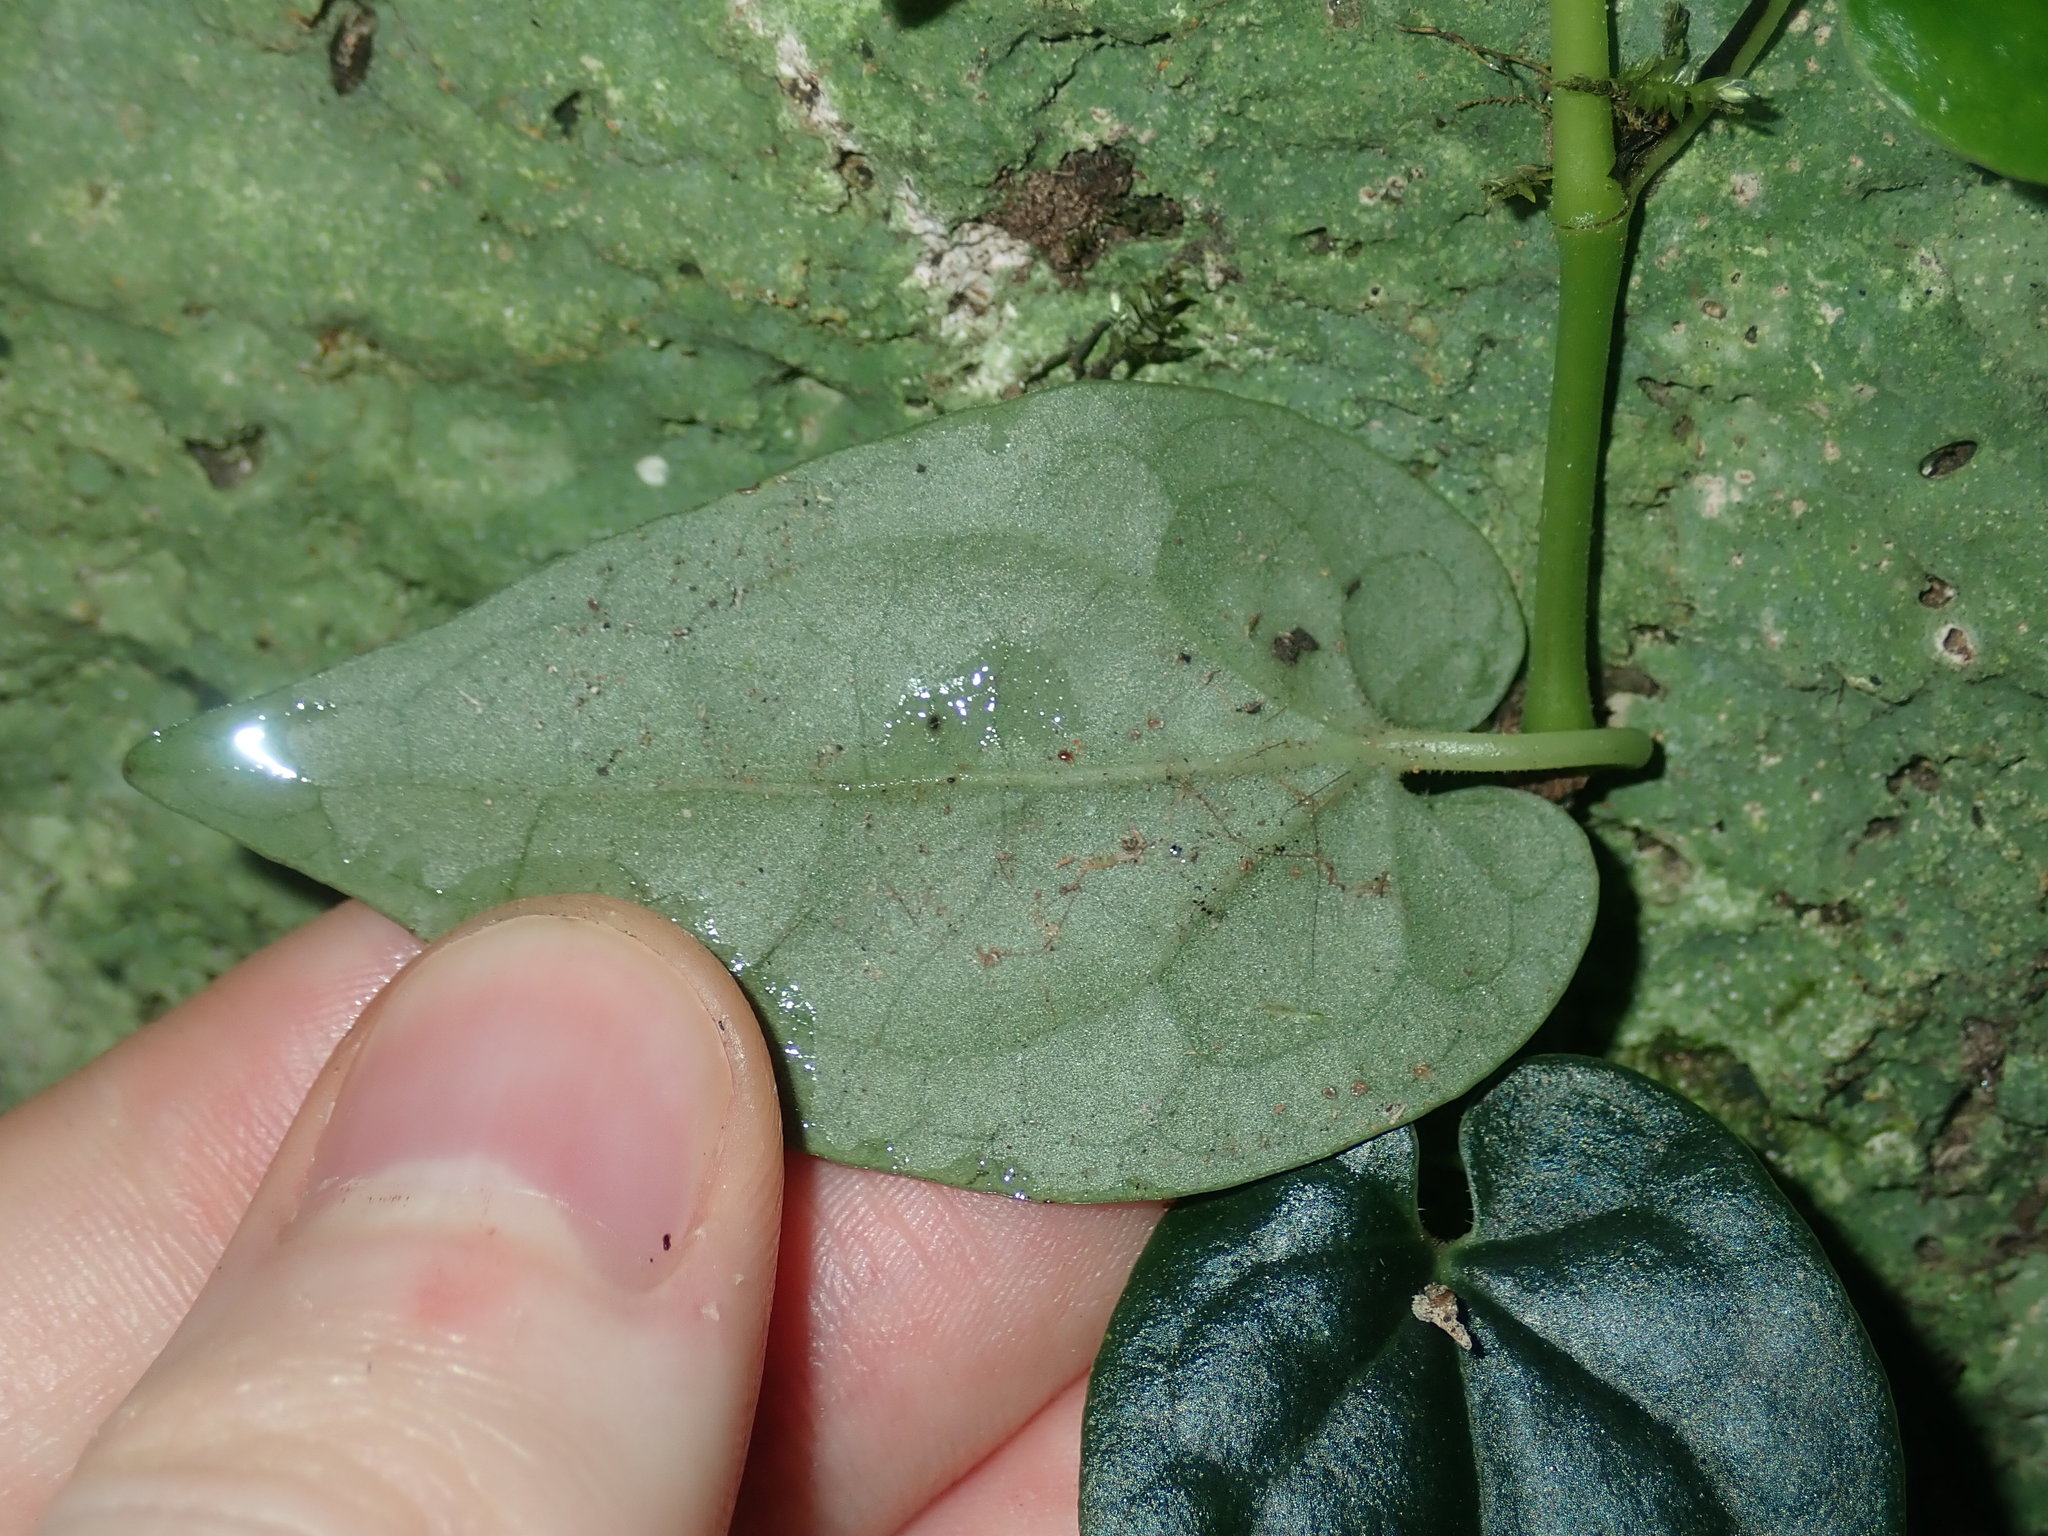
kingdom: Plantae
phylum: Tracheophyta
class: Magnoliopsida
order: Piperales
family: Piperaceae
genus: Piper
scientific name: Piper hederaceum
